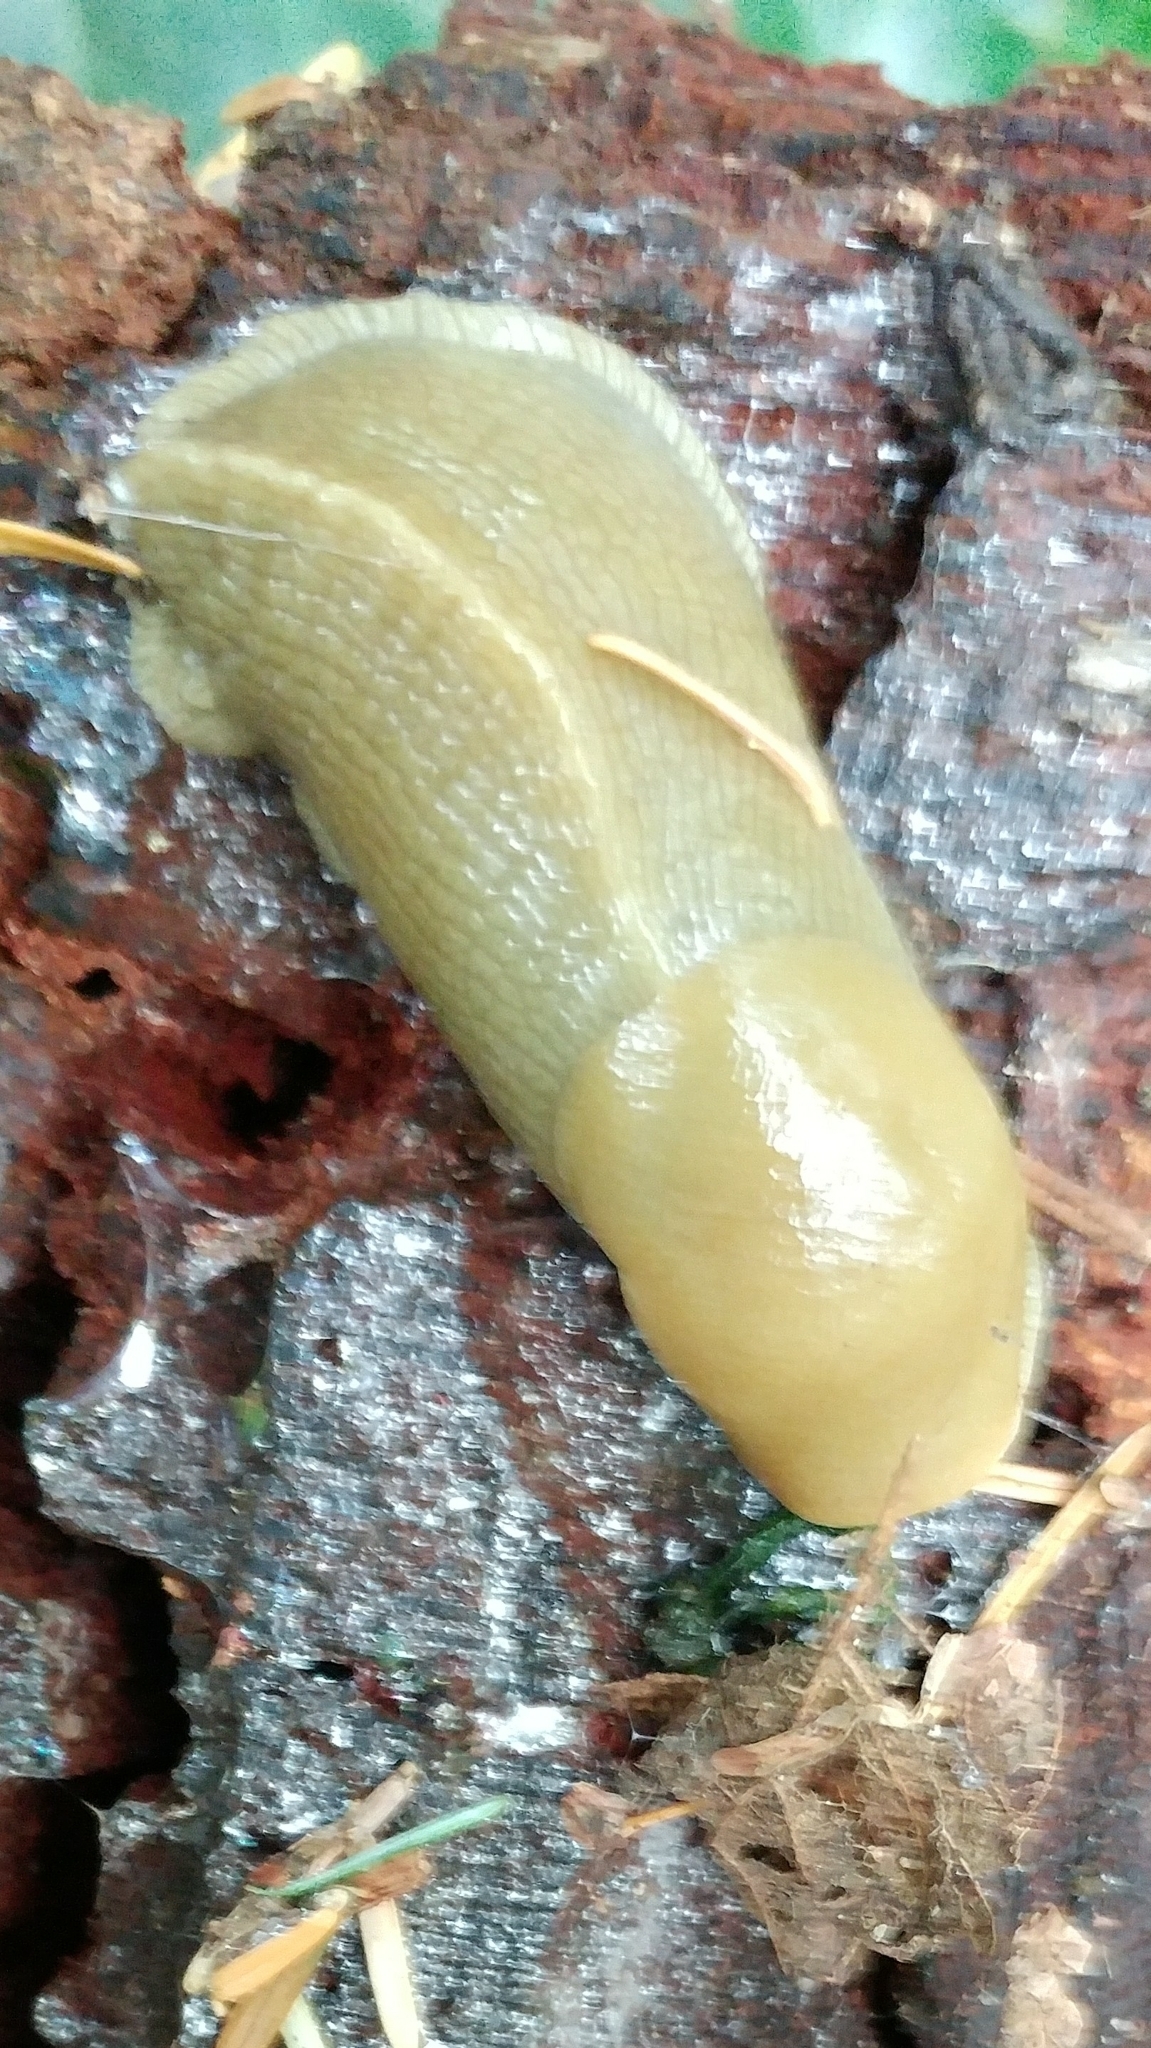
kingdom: Animalia
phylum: Mollusca
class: Gastropoda
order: Stylommatophora
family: Ariolimacidae
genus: Ariolimax
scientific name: Ariolimax columbianus
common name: Pacific banana slug
